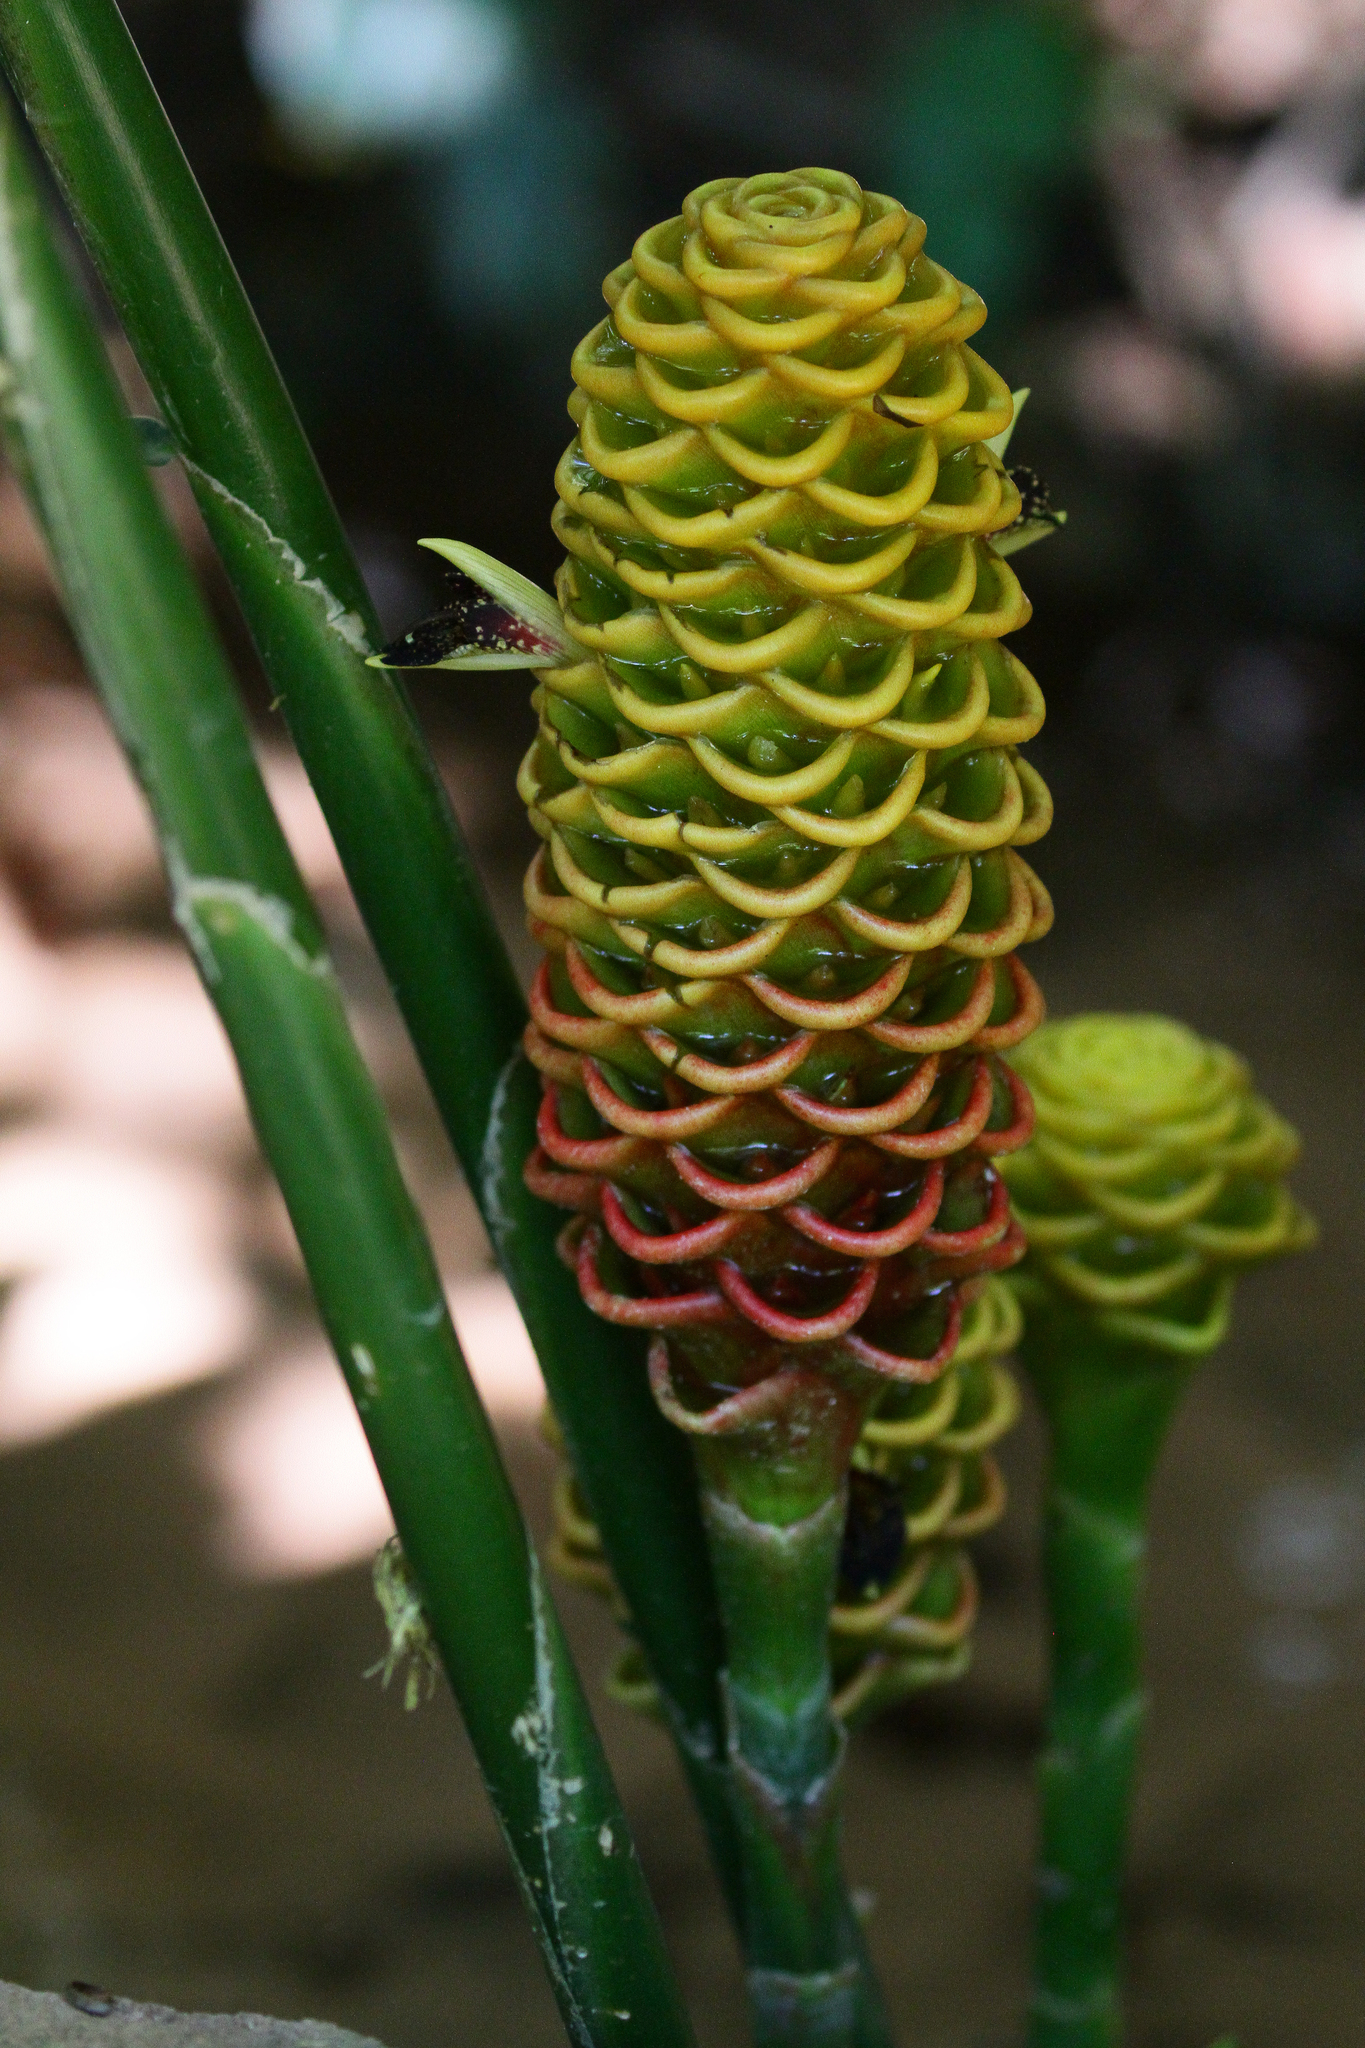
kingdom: Plantae
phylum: Tracheophyta
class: Liliopsida
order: Zingiberales
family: Zingiberaceae
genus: Zingiber
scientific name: Zingiber spectabile
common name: Beehive ginger
